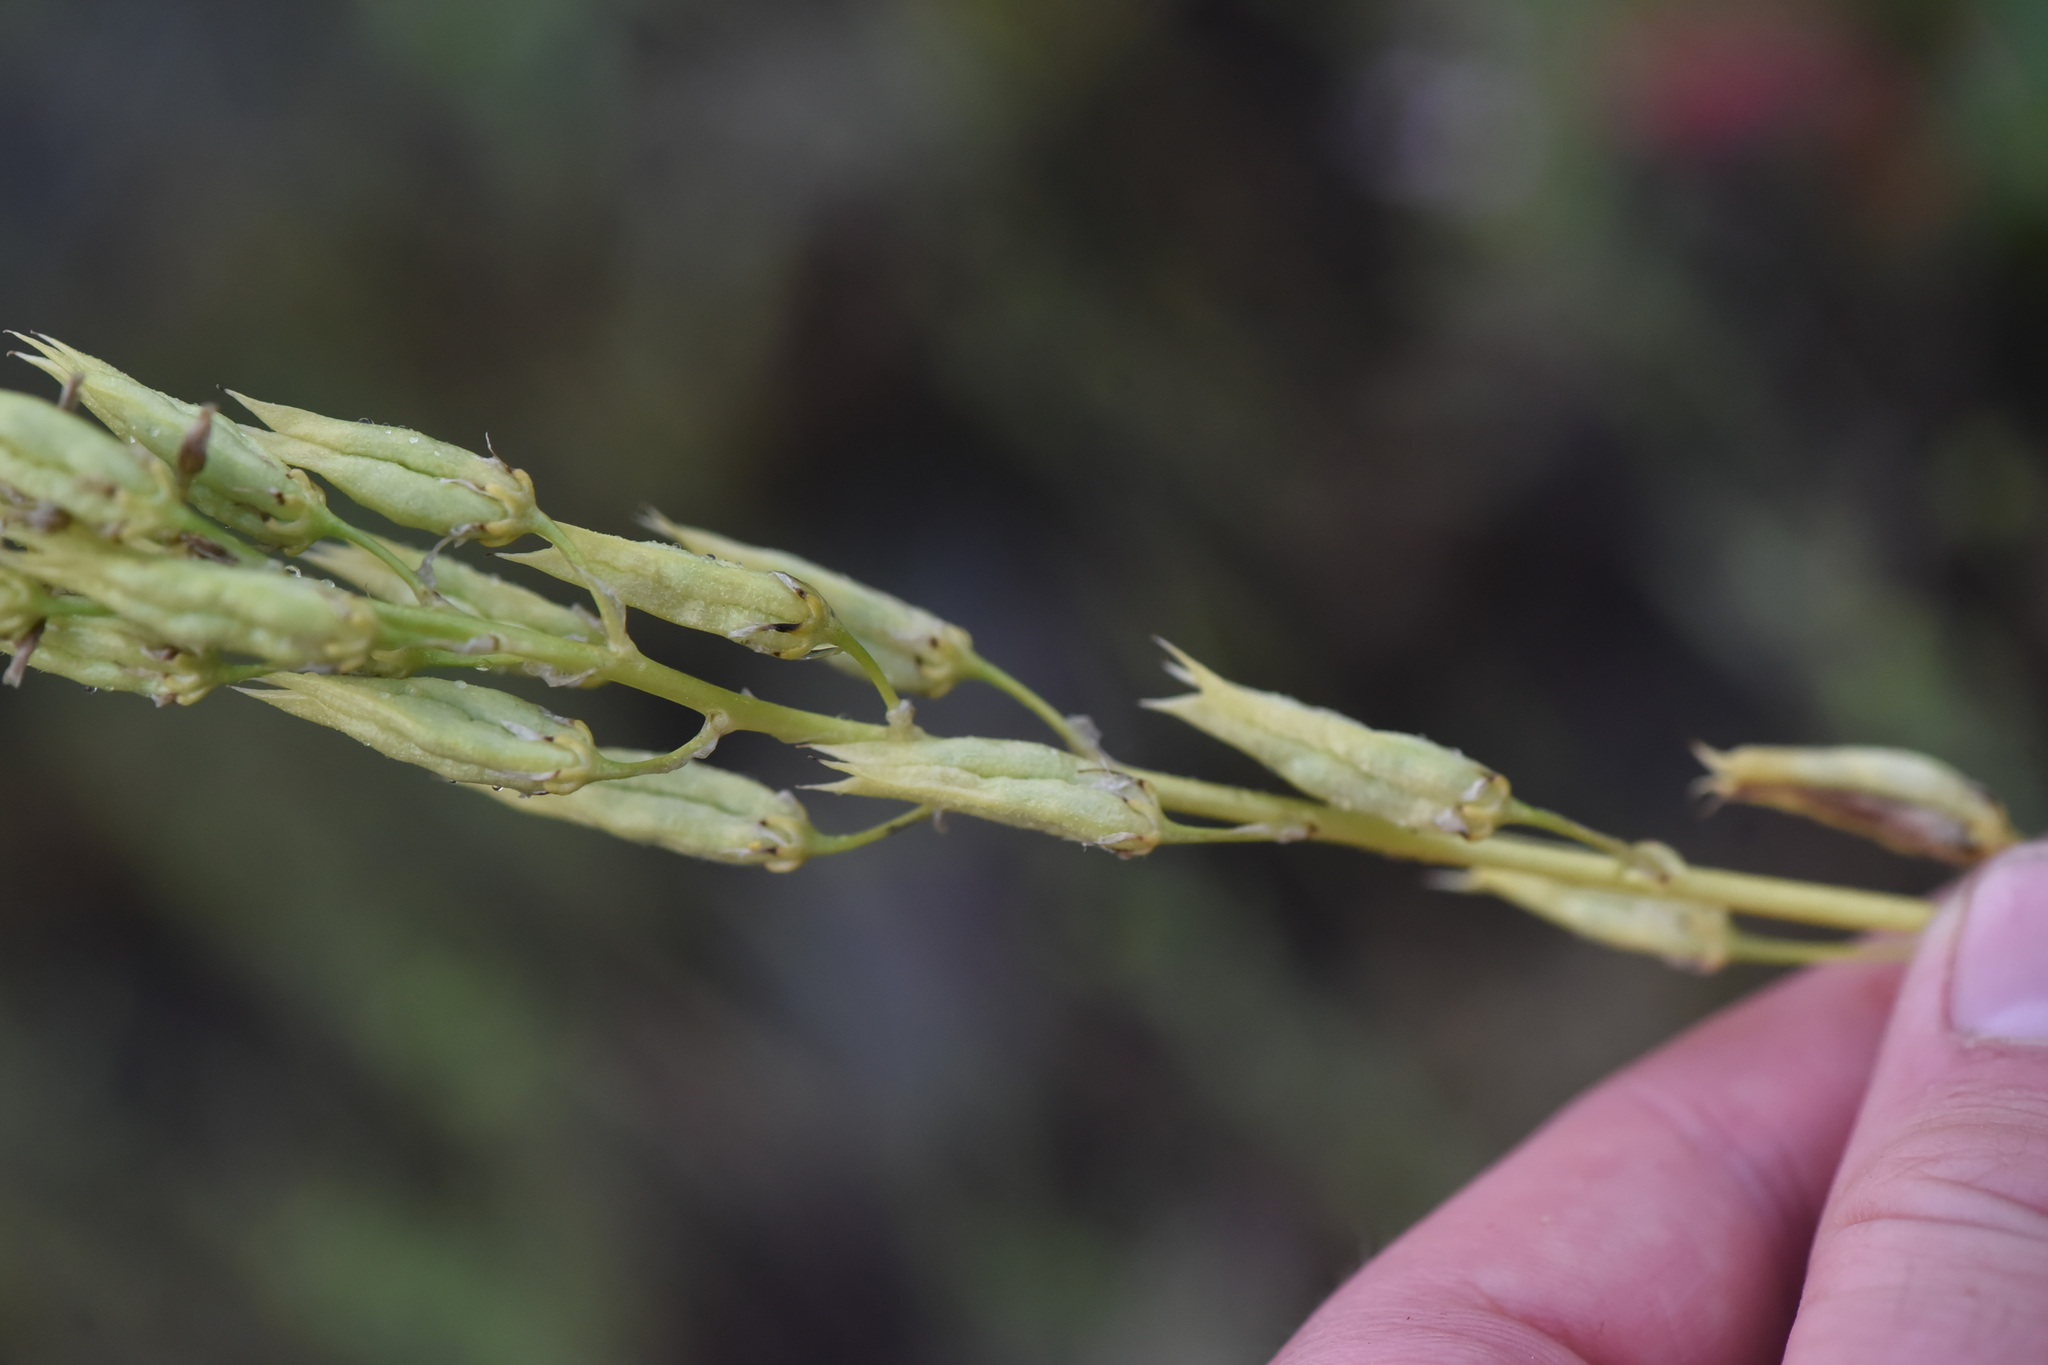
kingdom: Plantae
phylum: Tracheophyta
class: Liliopsida
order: Liliales
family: Melanthiaceae
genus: Toxicoscordion
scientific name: Toxicoscordion venenosum
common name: Meadow death camas
